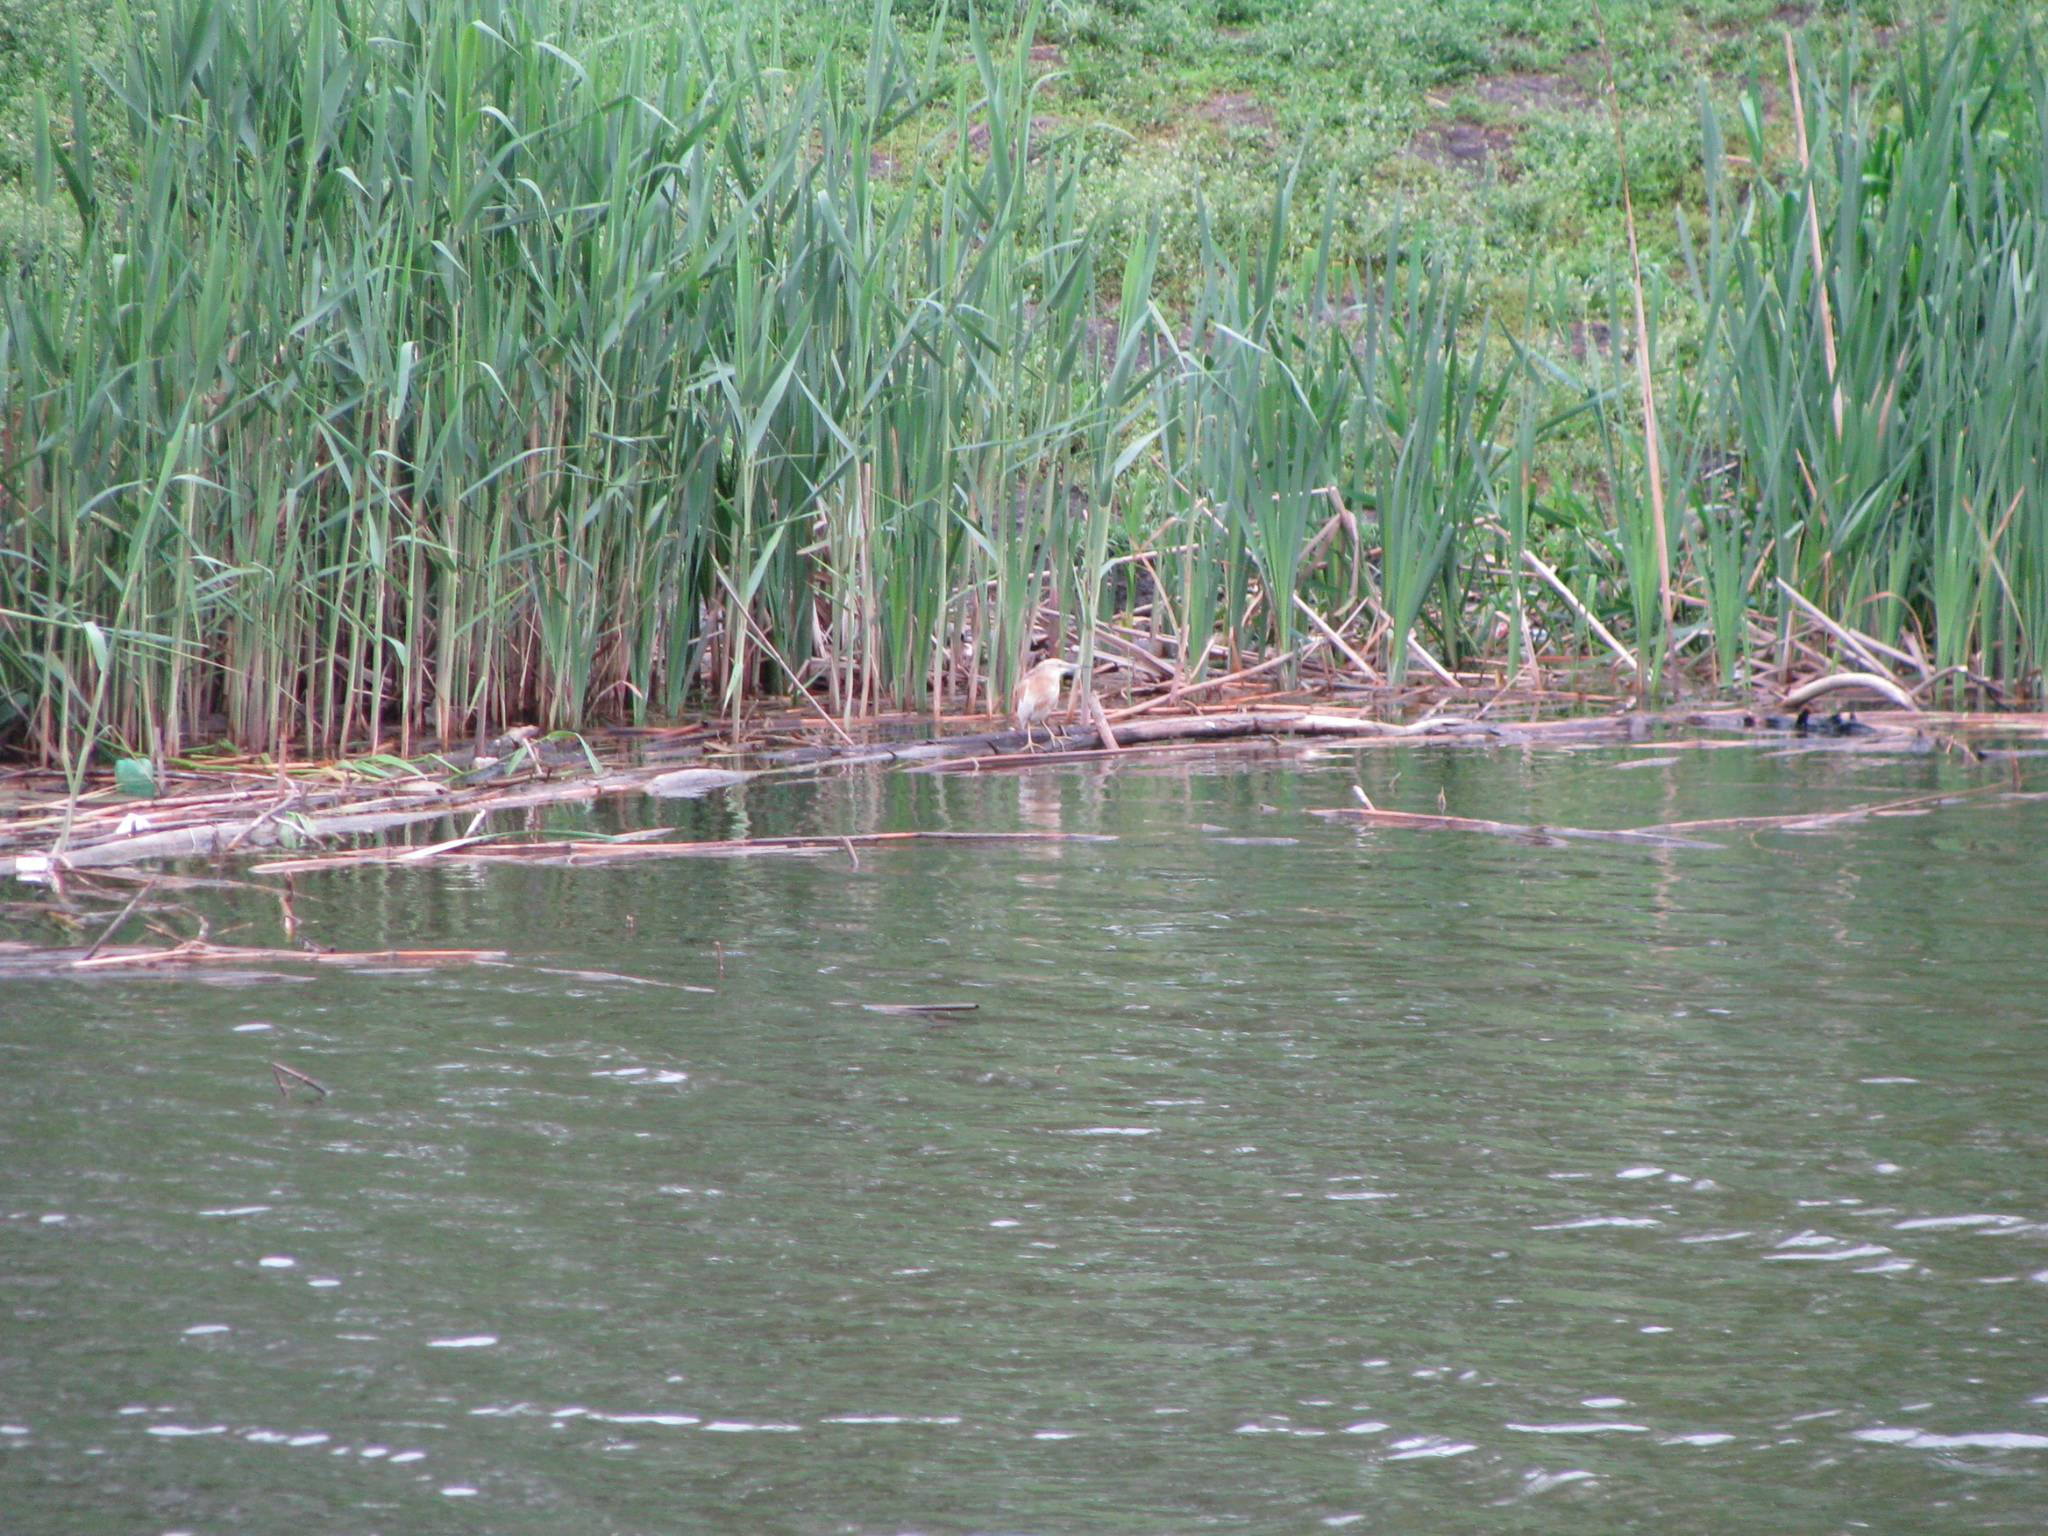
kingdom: Animalia
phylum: Chordata
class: Aves
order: Pelecaniformes
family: Ardeidae
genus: Ardeola
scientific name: Ardeola ralloides
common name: Squacco heron
